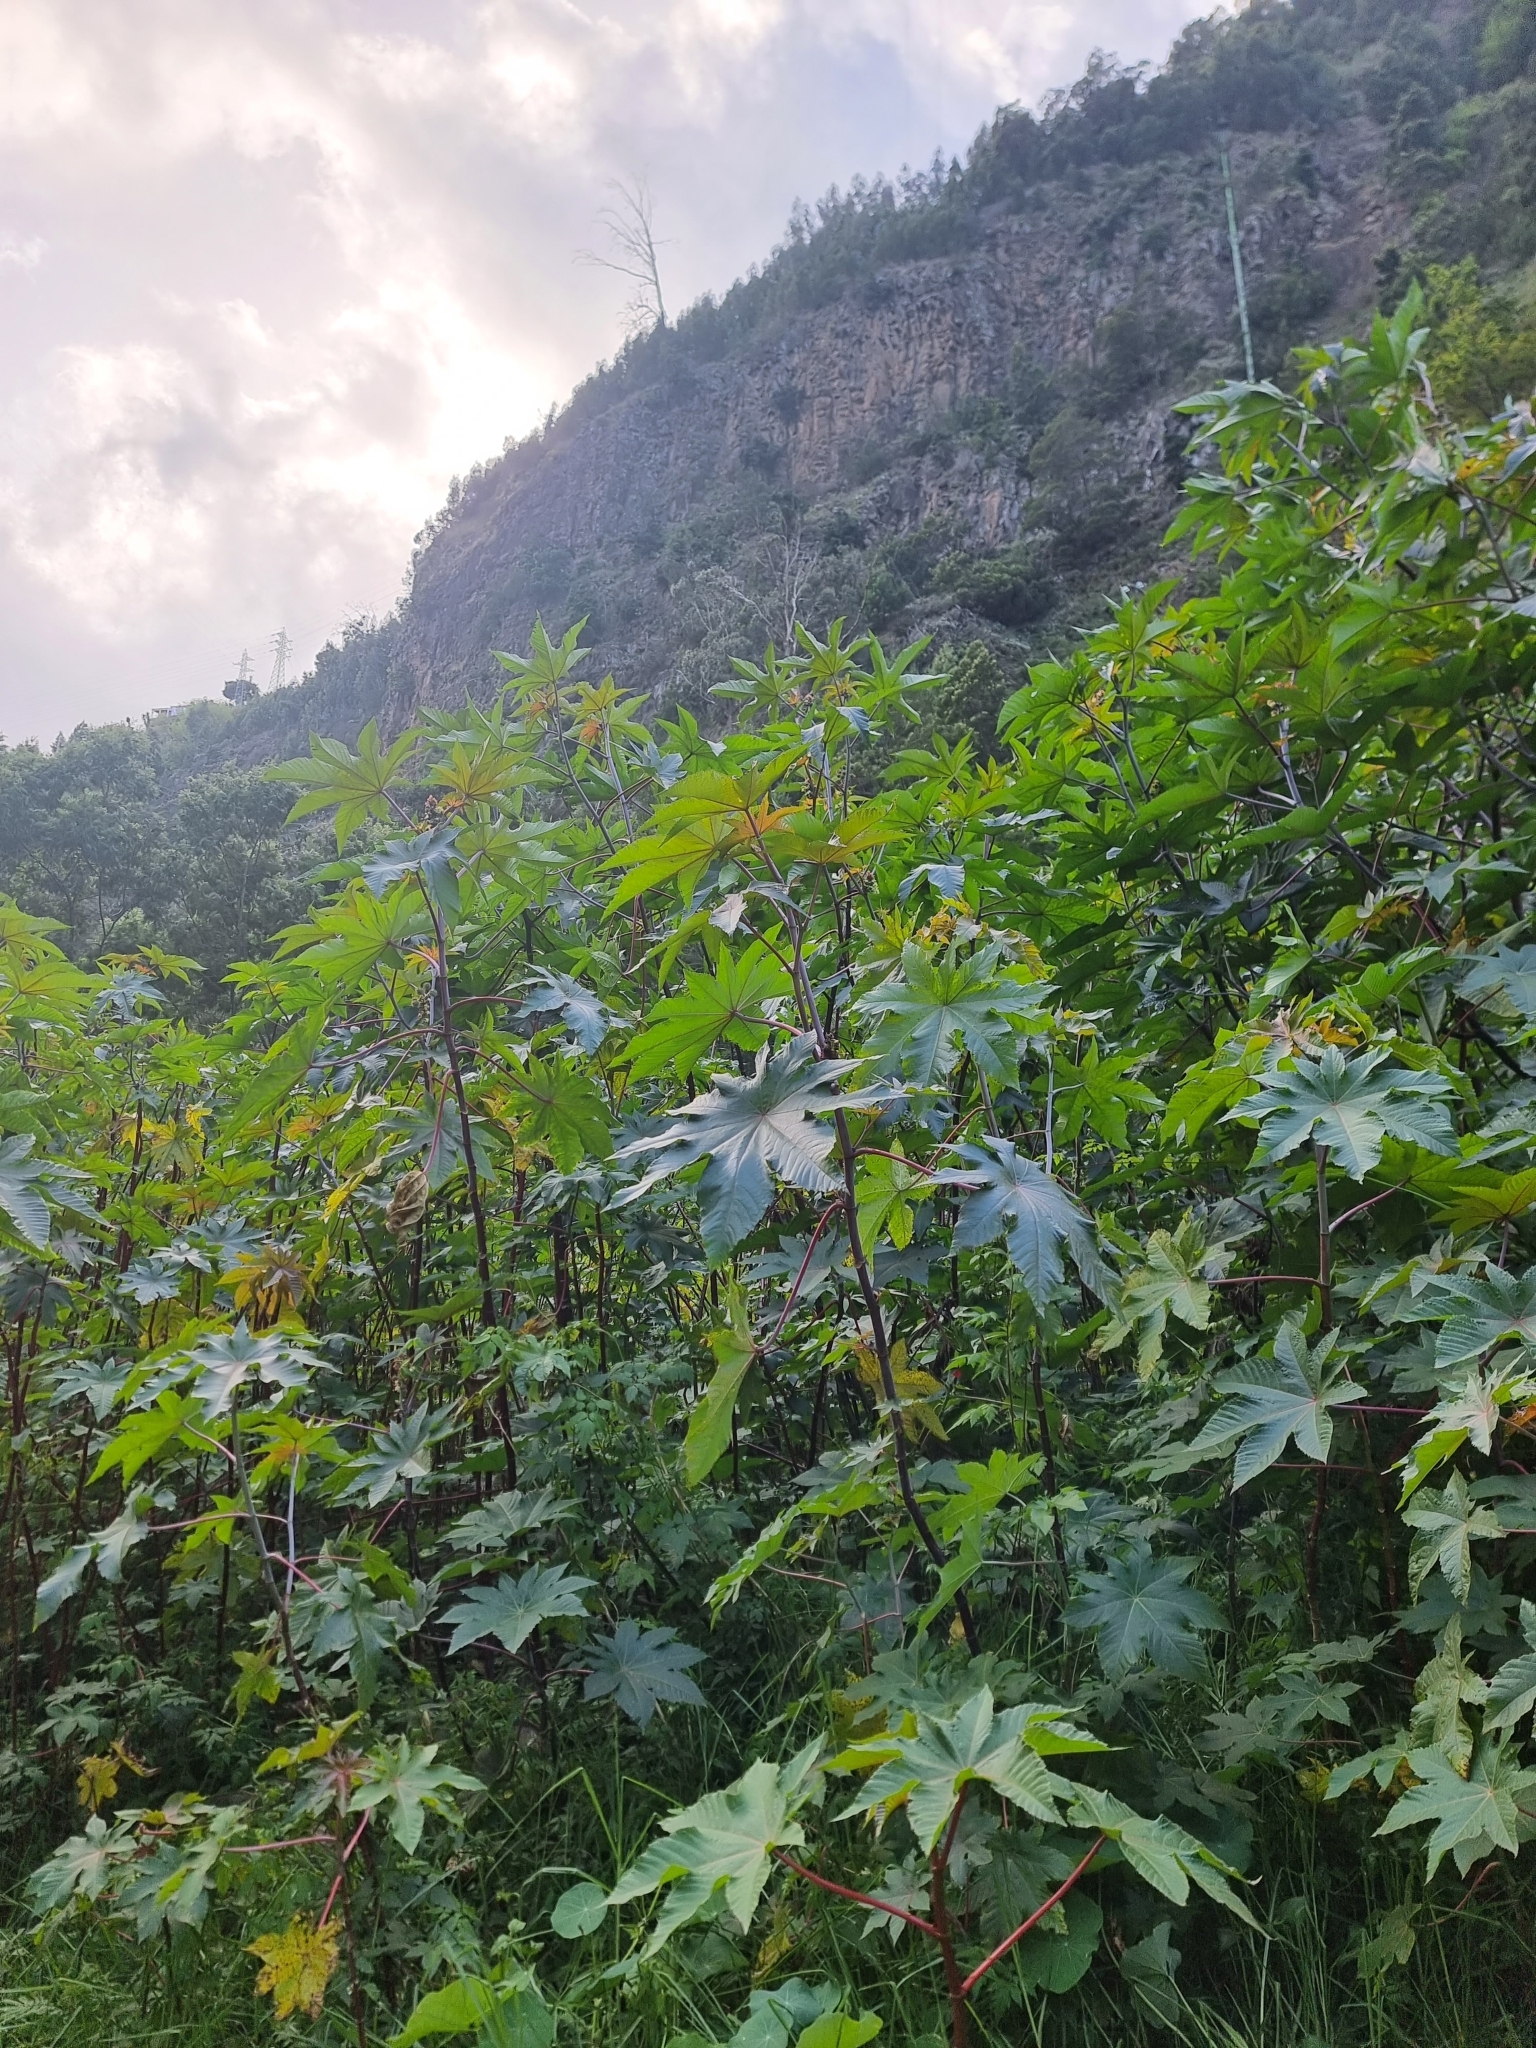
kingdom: Plantae
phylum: Tracheophyta
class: Magnoliopsida
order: Malpighiales
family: Euphorbiaceae
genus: Ricinus
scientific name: Ricinus communis
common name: Castor-oil-plant
